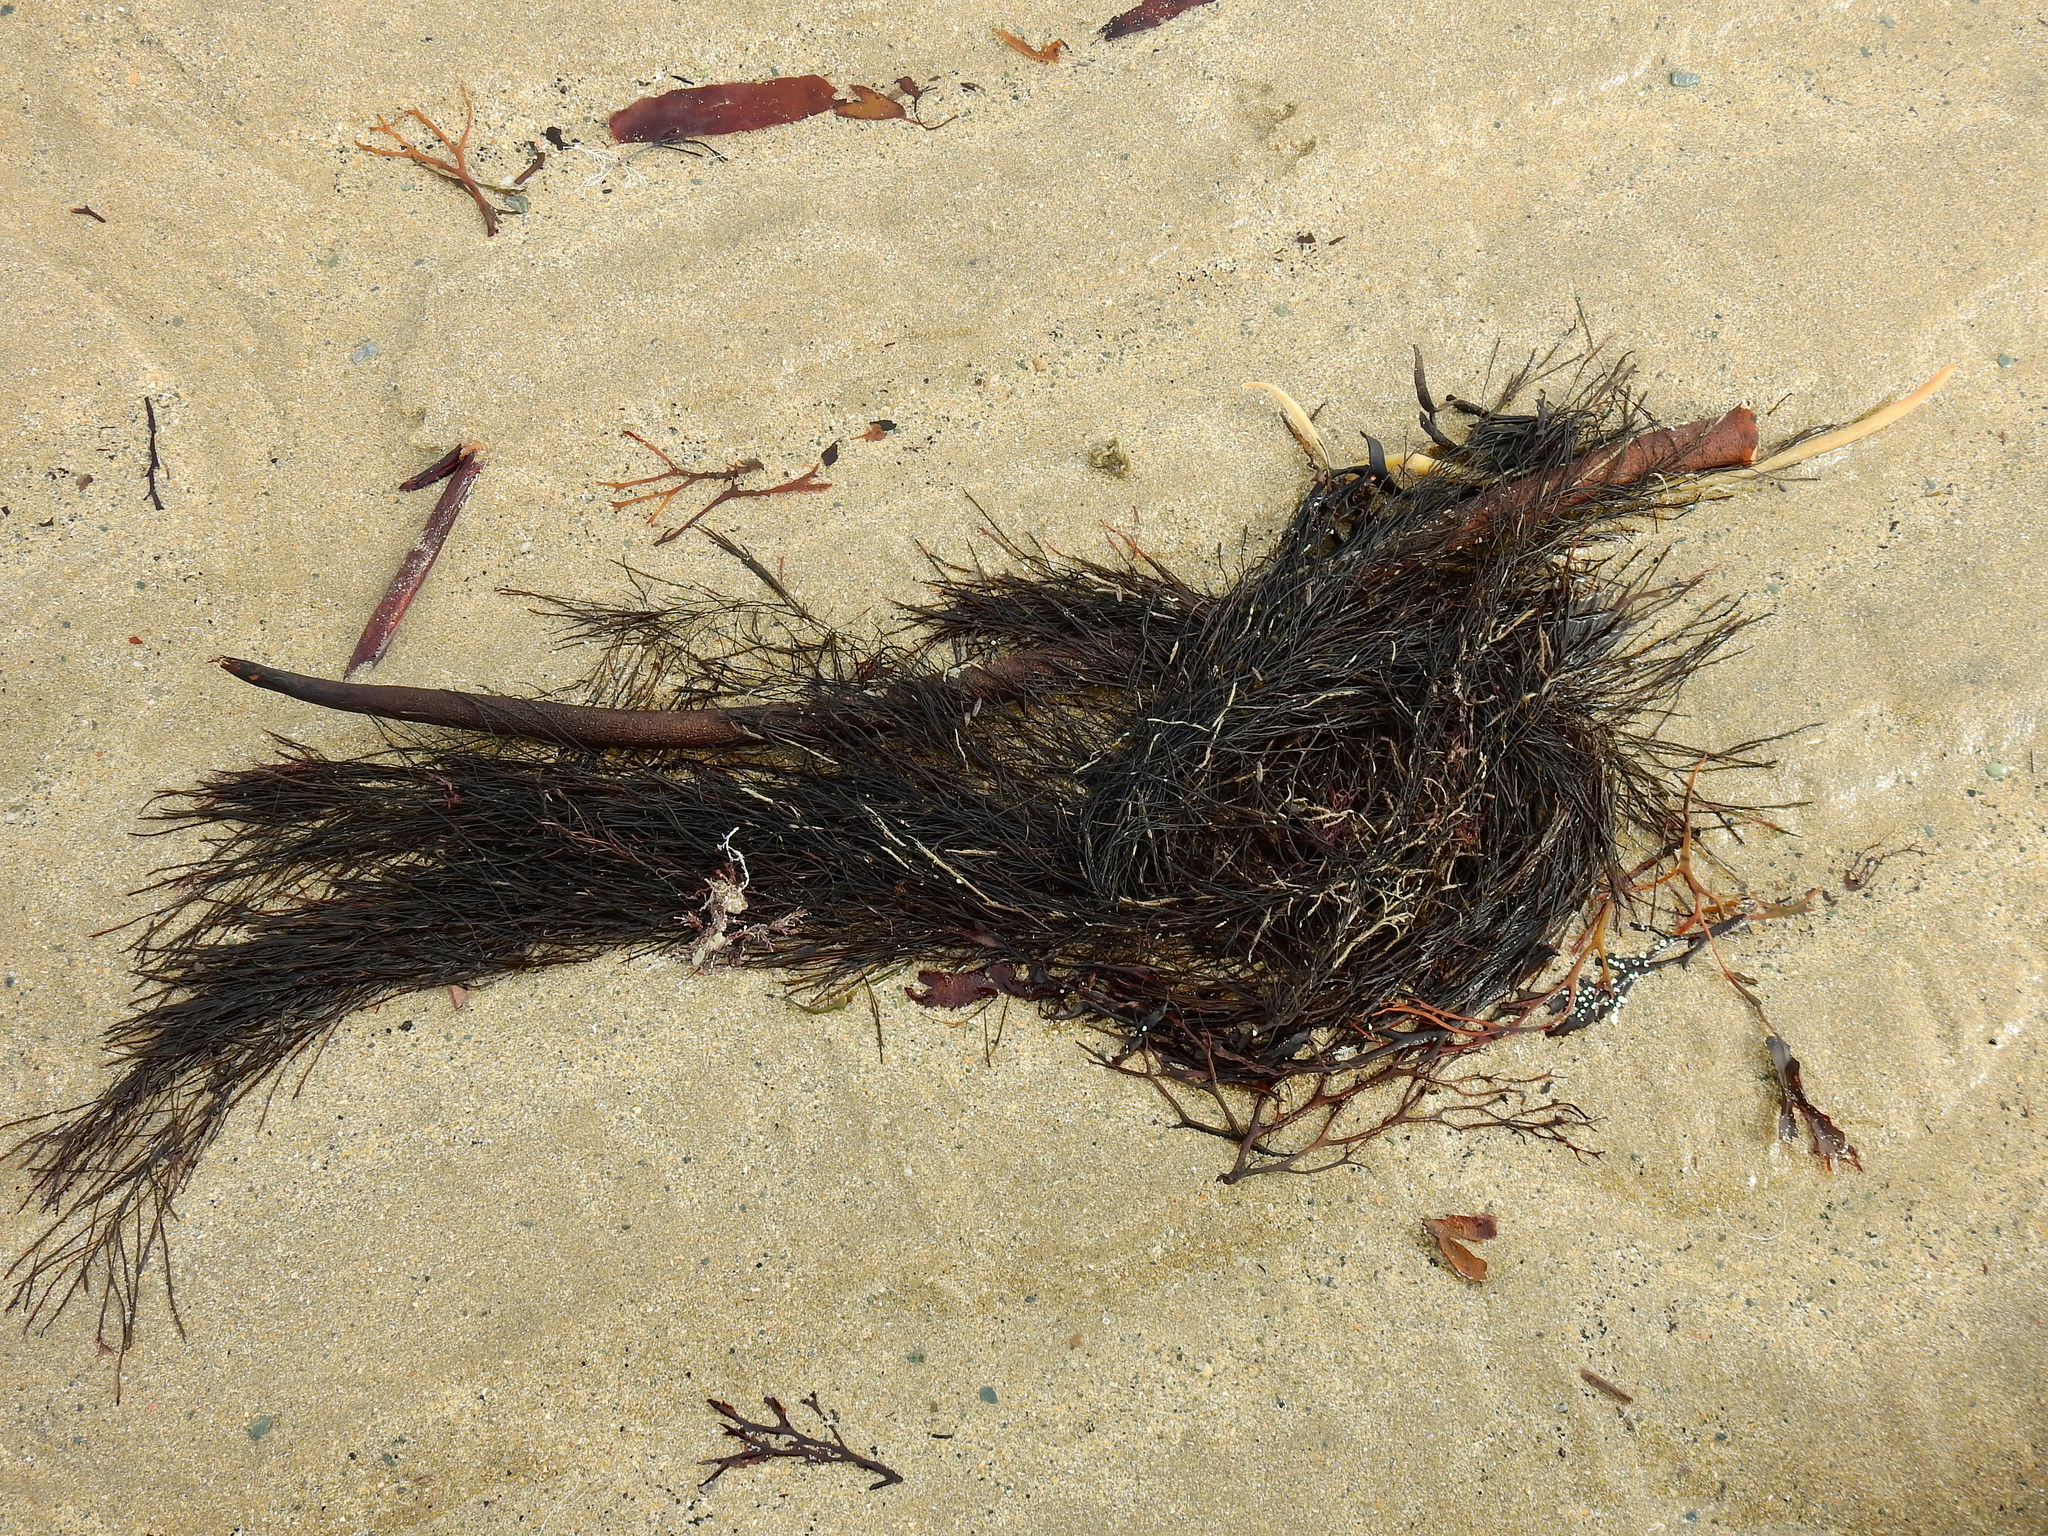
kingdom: Chromista
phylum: Ochrophyta
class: Phaeophyceae
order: Desmarestiales
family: Desmarestiaceae
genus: Desmarestia
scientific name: Desmarestia aculeata
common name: Witch's hair
